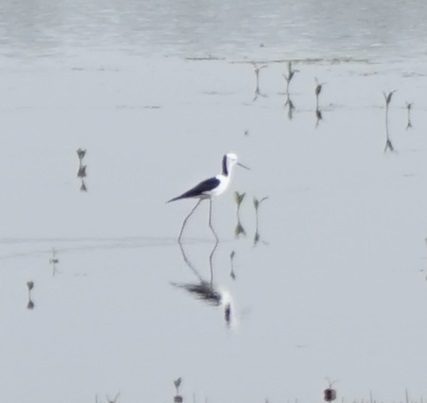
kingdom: Animalia
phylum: Chordata
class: Aves
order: Charadriiformes
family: Recurvirostridae
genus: Himantopus
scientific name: Himantopus leucocephalus
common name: White-headed stilt
